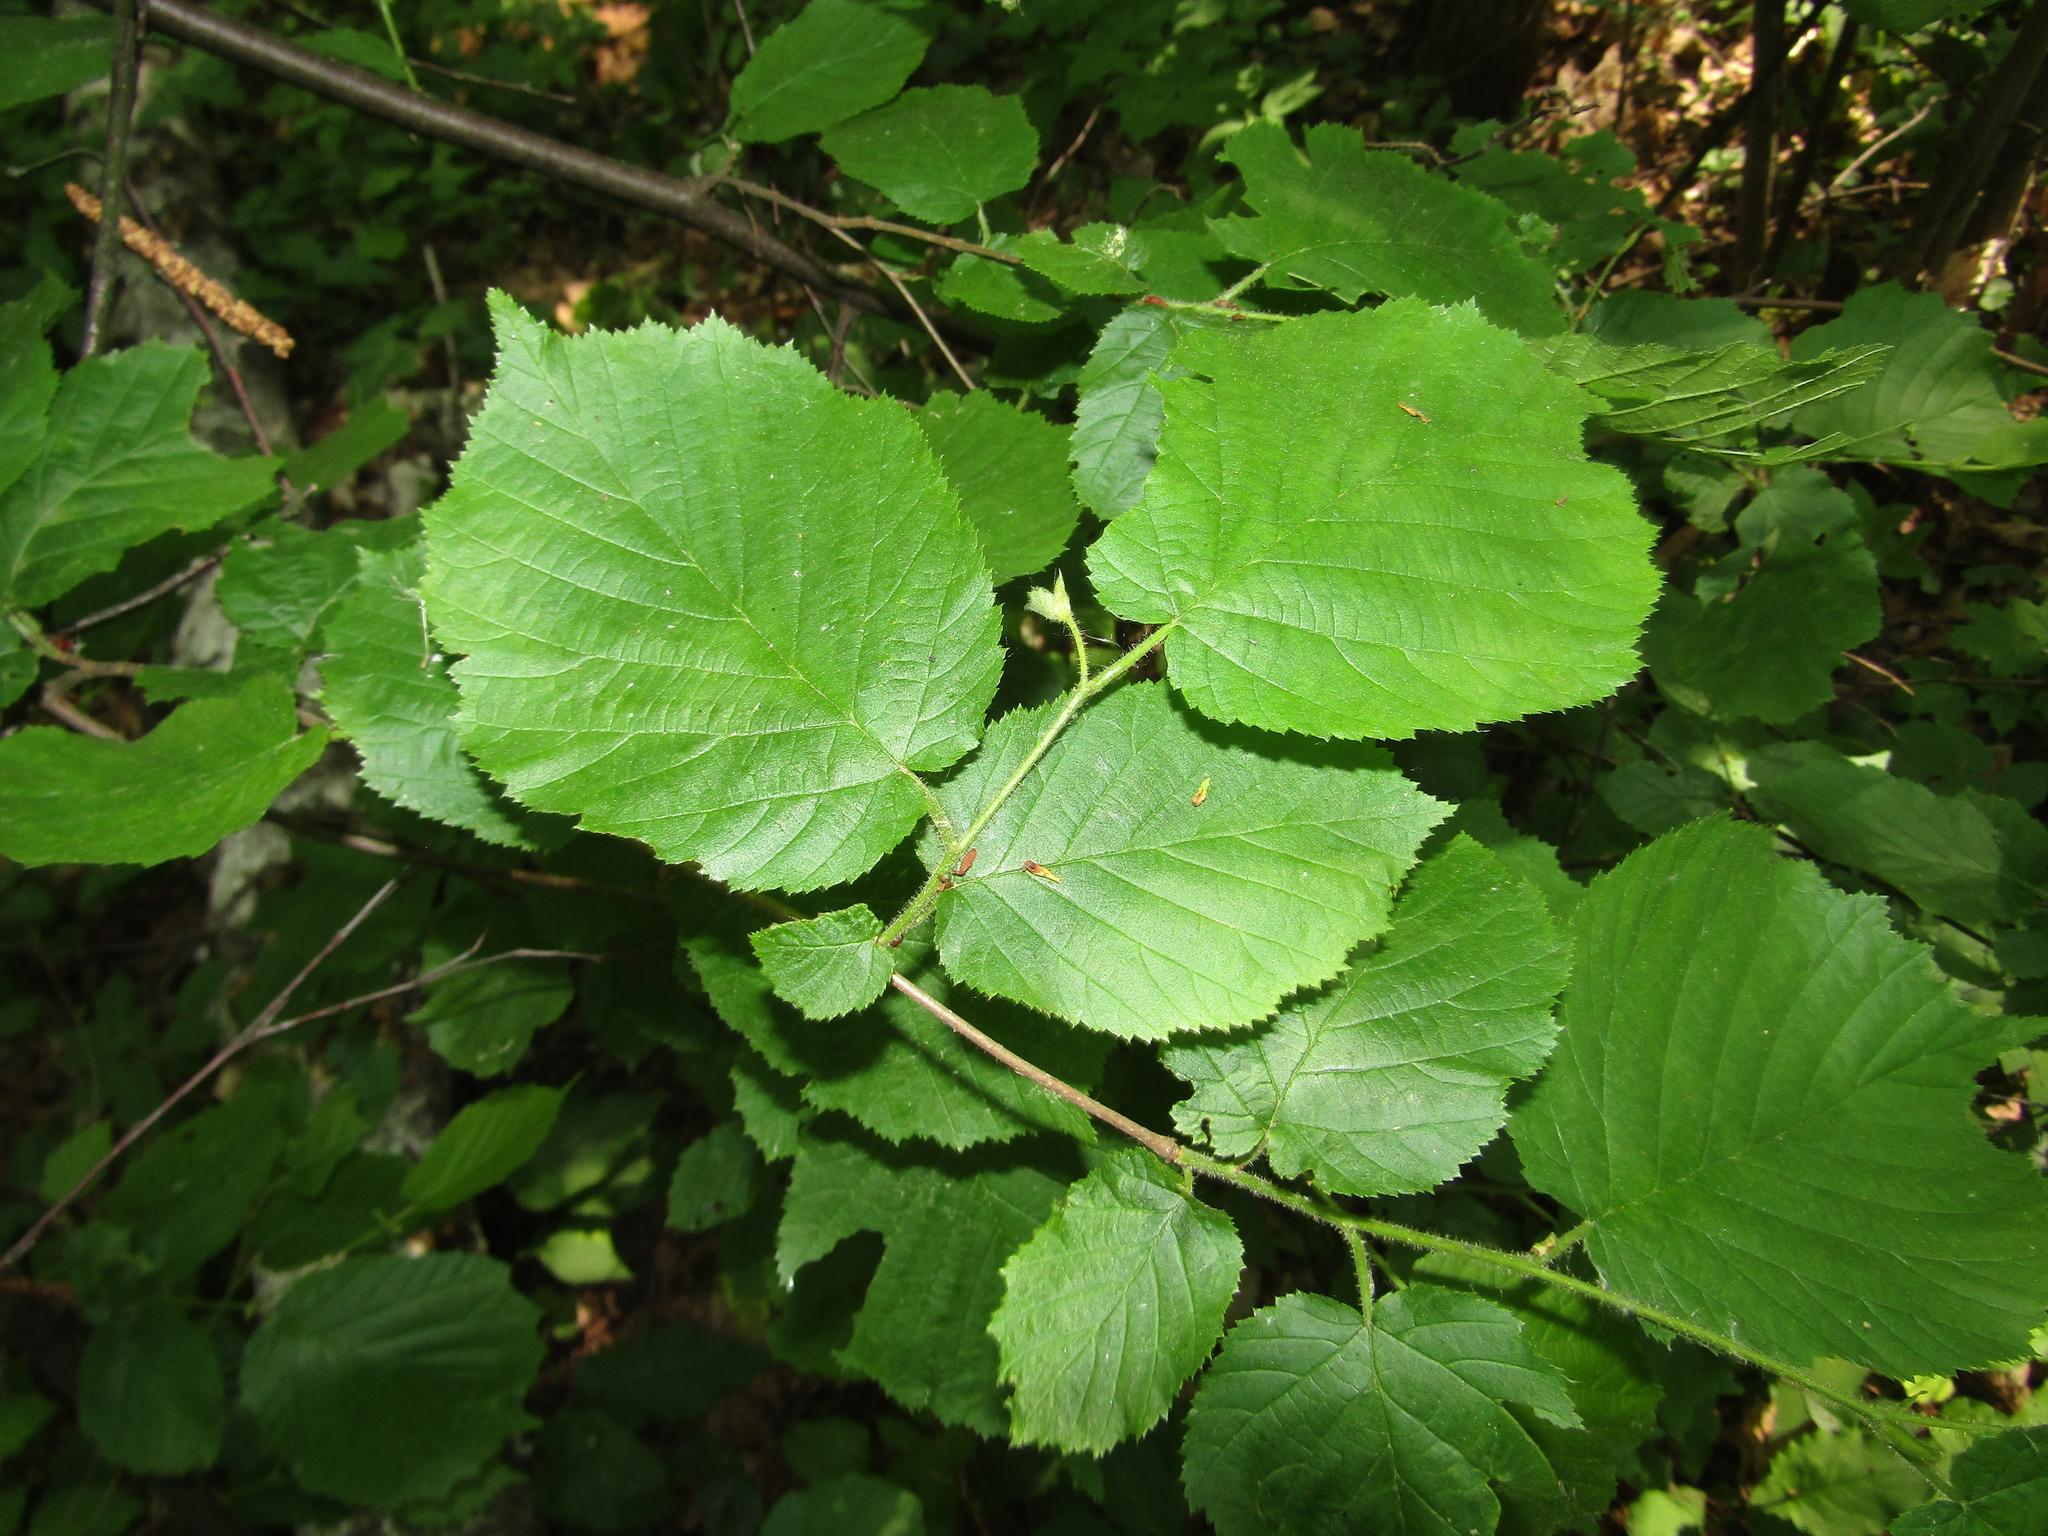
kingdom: Plantae
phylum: Tracheophyta
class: Magnoliopsida
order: Fagales
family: Betulaceae
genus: Corylus
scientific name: Corylus avellana
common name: European hazel
